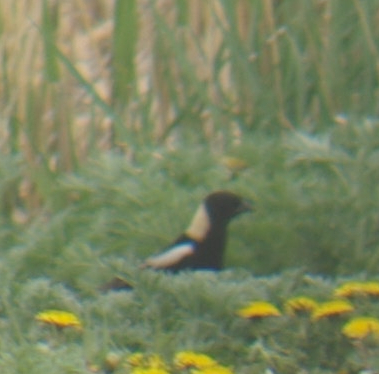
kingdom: Animalia
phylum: Chordata
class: Aves
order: Passeriformes
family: Icteridae
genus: Dolichonyx
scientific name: Dolichonyx oryzivorus
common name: Bobolink
